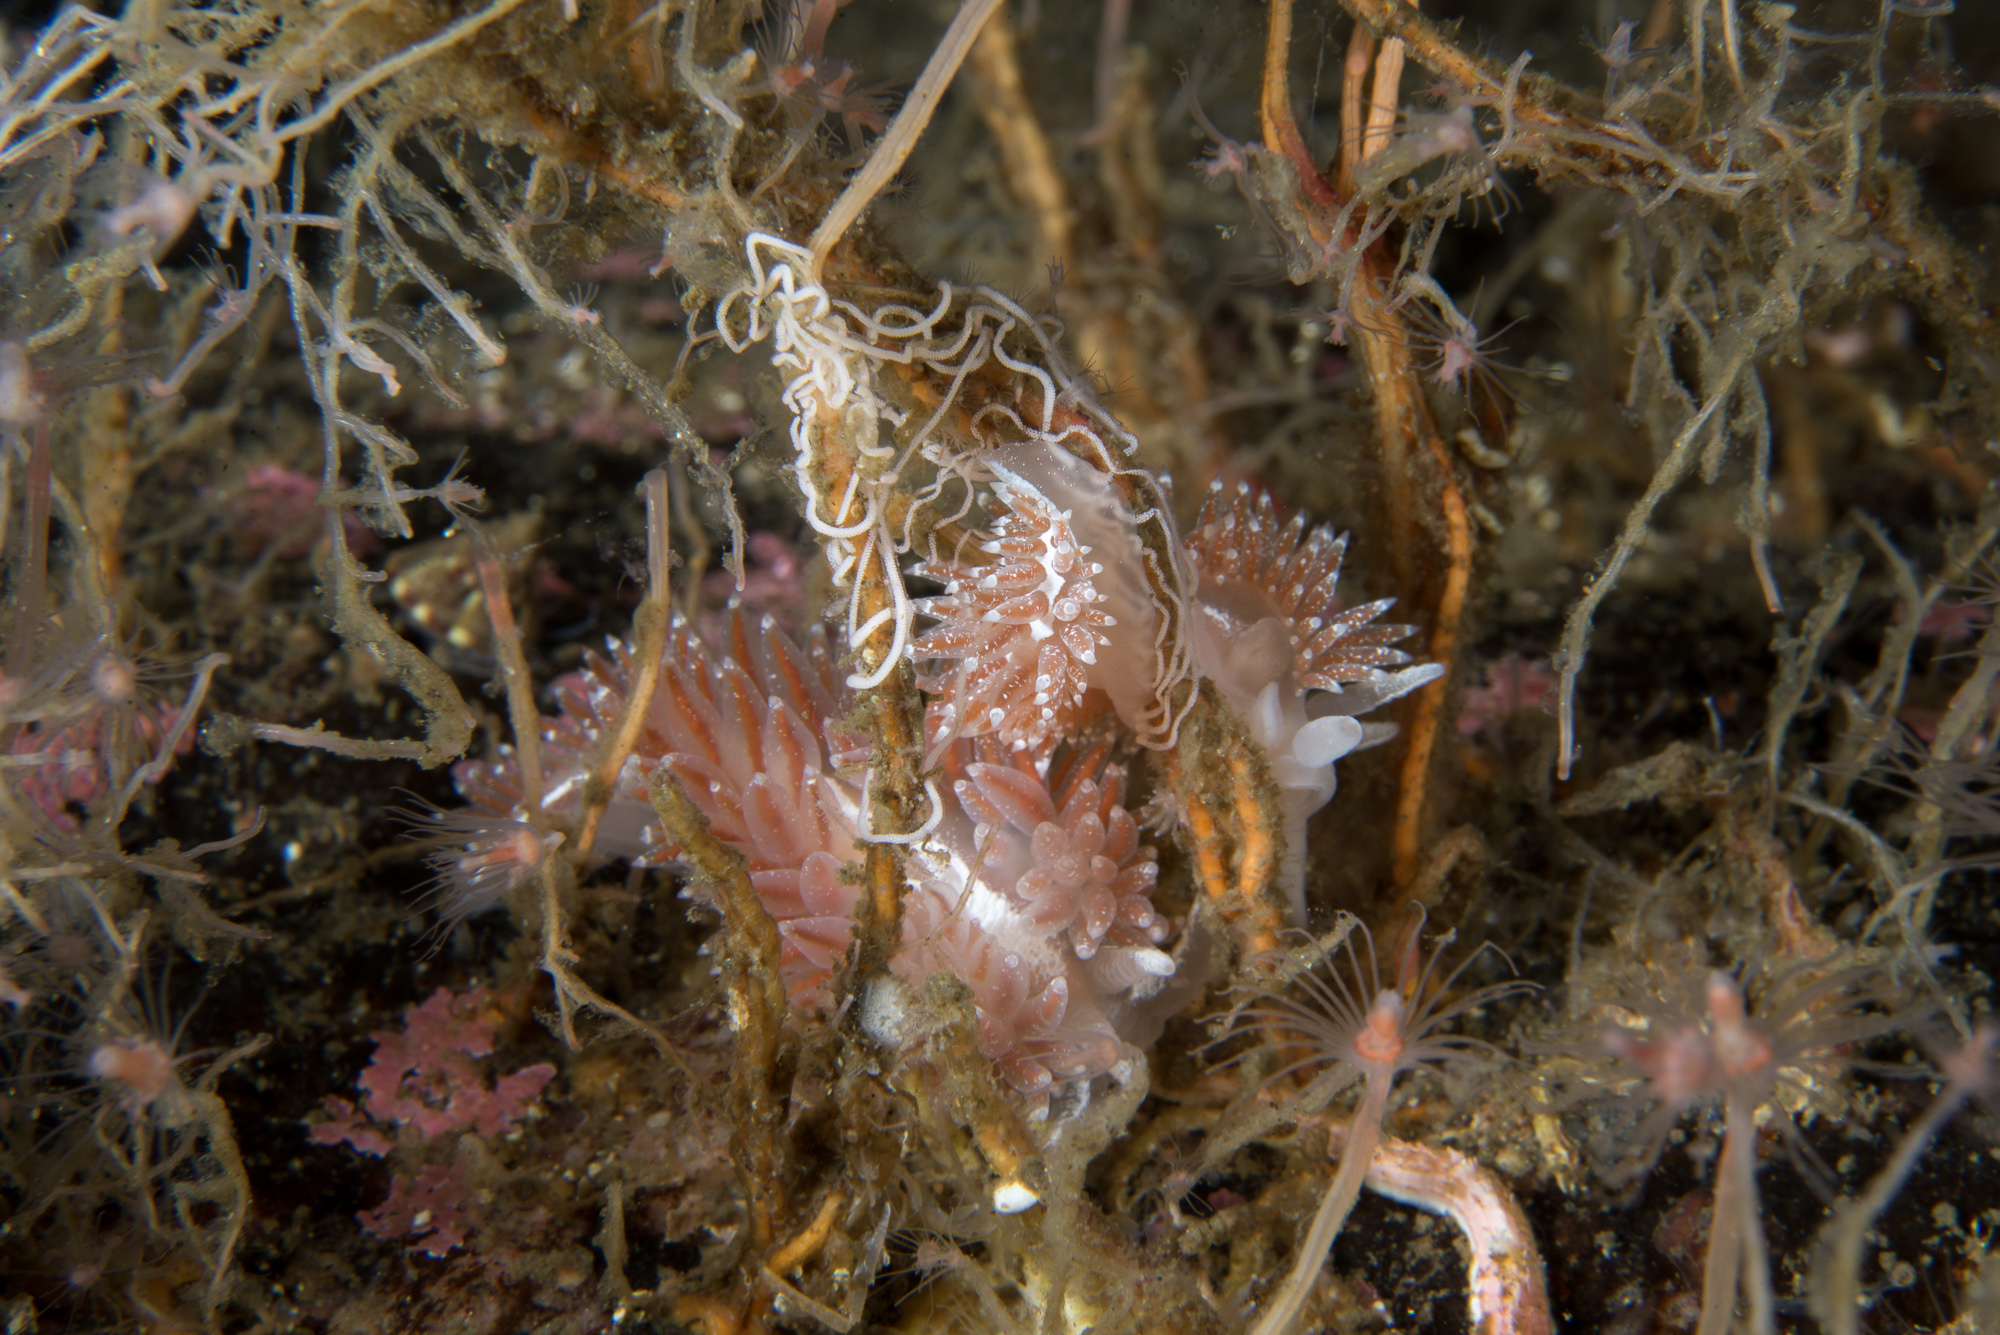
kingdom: Animalia
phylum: Mollusca
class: Gastropoda
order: Nudibranchia
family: Coryphellidae
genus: Coryphella
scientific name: Coryphella orjani
